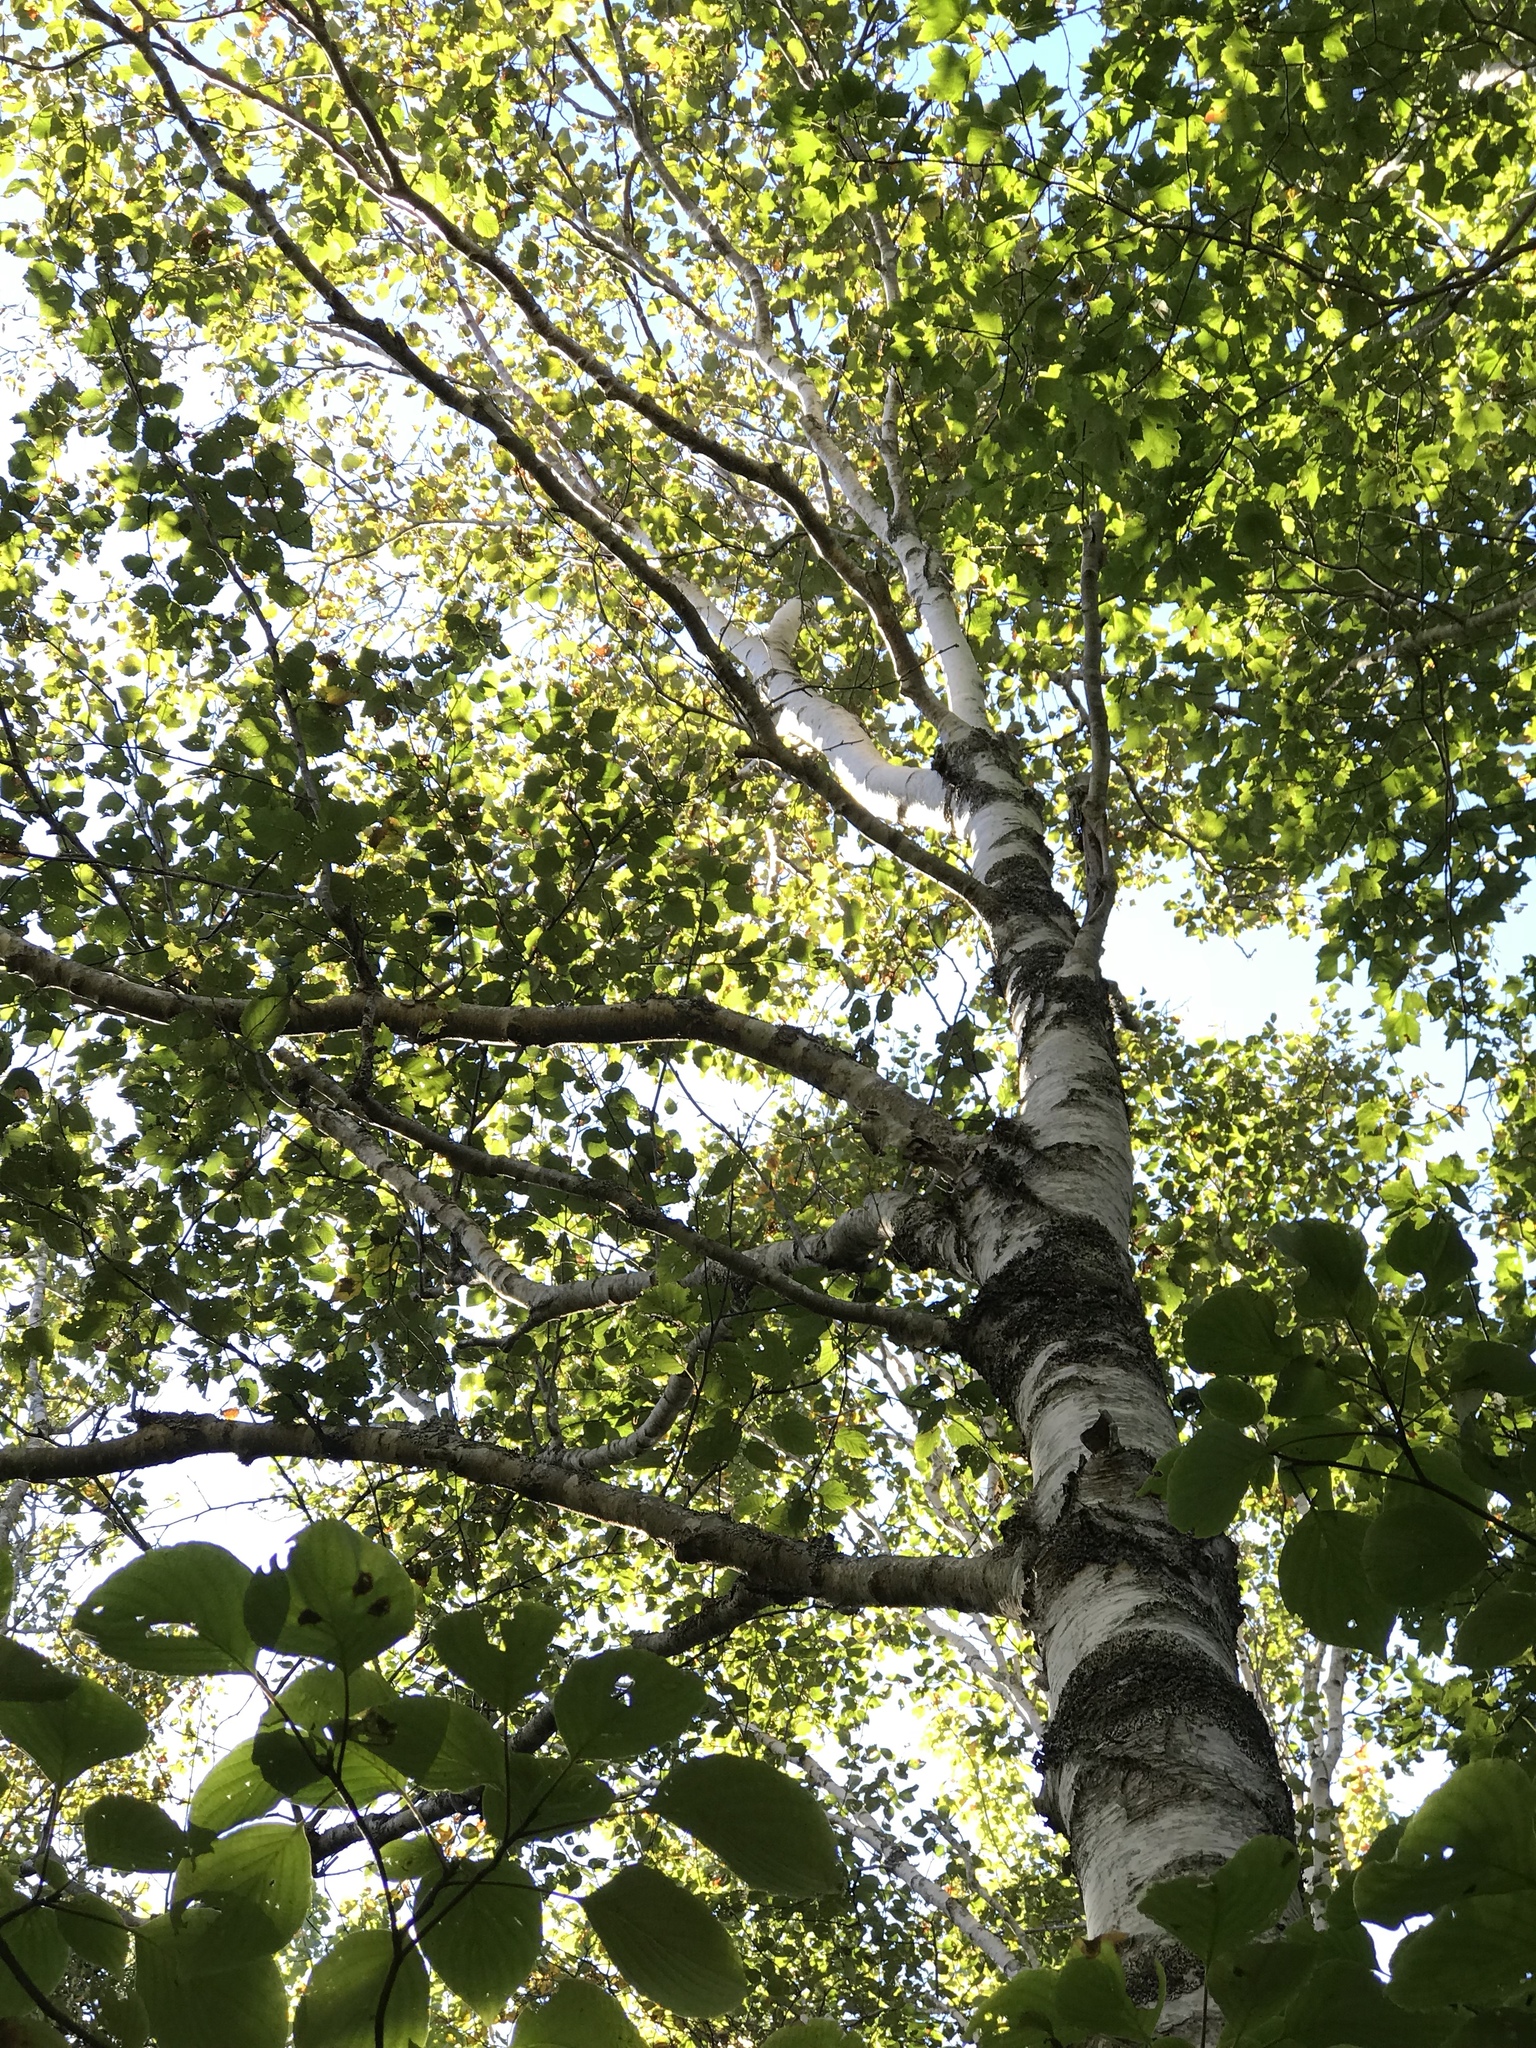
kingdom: Plantae
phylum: Tracheophyta
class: Magnoliopsida
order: Fagales
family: Betulaceae
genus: Betula
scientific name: Betula papyrifera
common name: Paper birch
